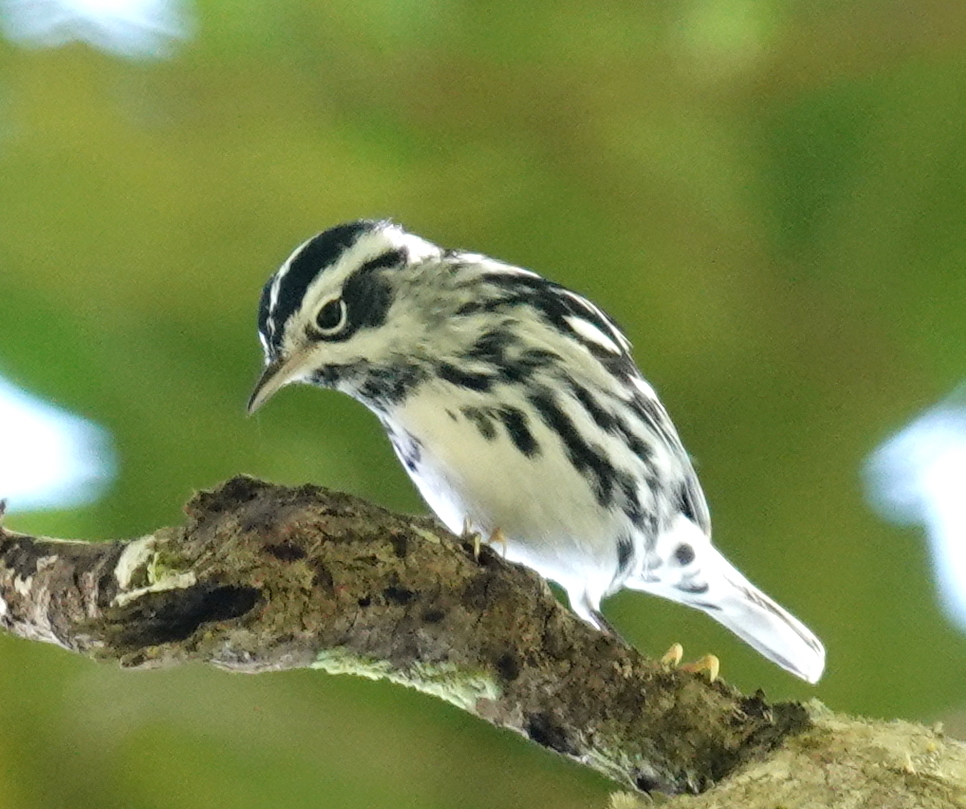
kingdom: Animalia
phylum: Chordata
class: Aves
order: Passeriformes
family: Parulidae
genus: Mniotilta
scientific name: Mniotilta varia
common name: Black-and-white warbler
